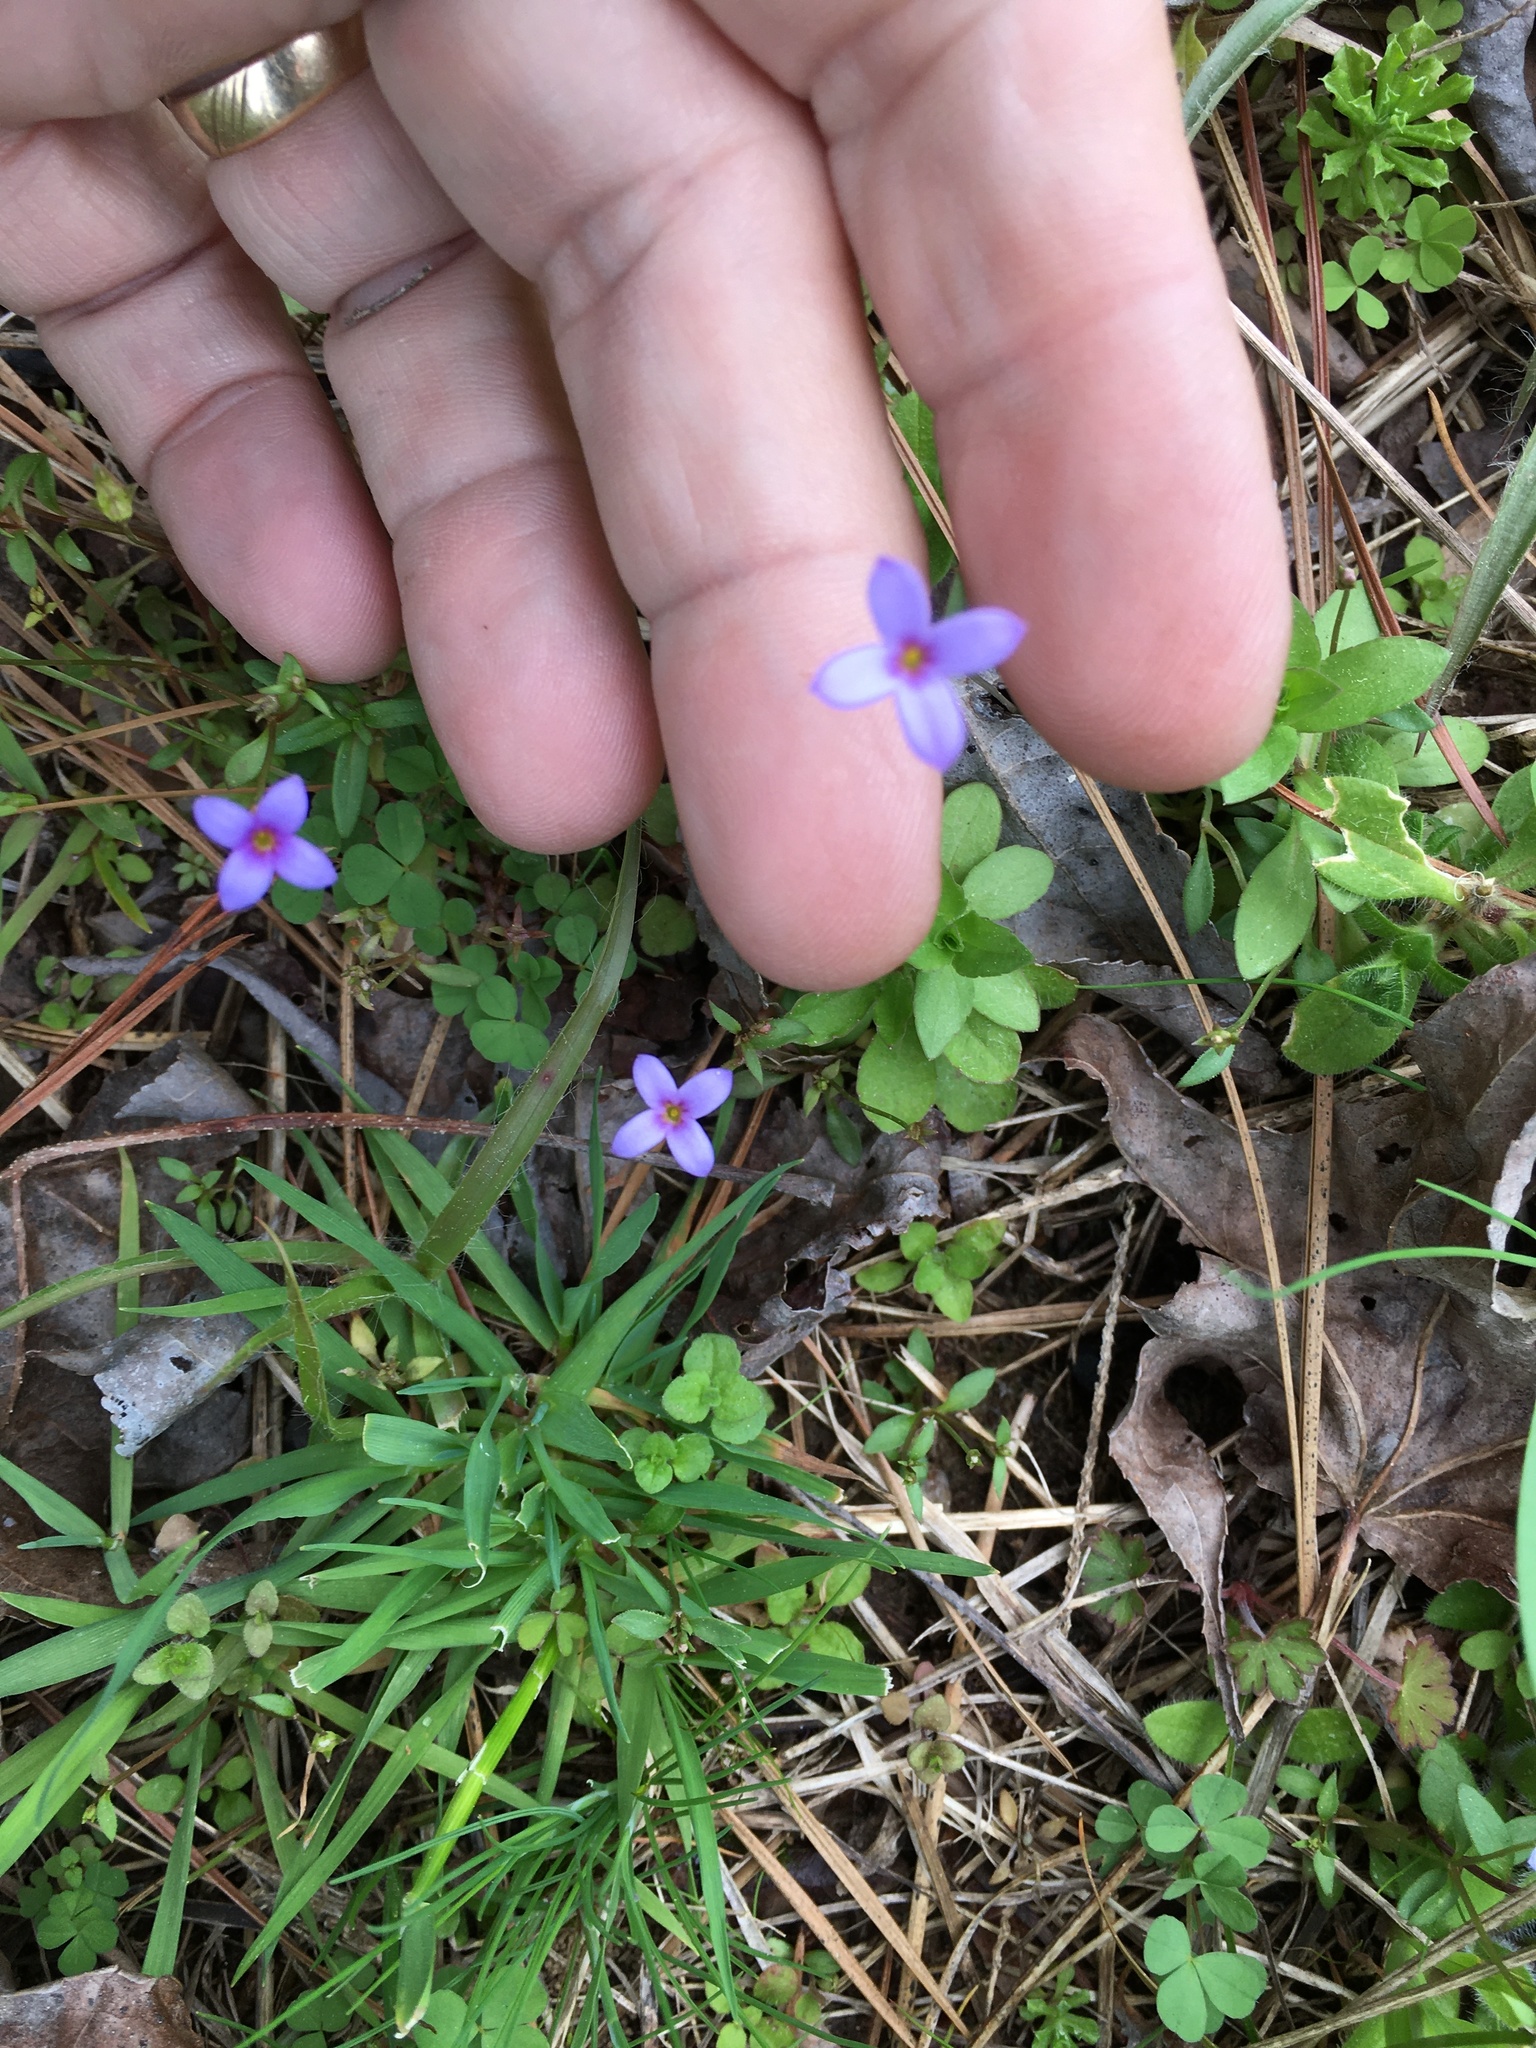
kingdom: Plantae
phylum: Tracheophyta
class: Magnoliopsida
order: Gentianales
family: Rubiaceae
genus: Houstonia
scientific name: Houstonia pusilla
